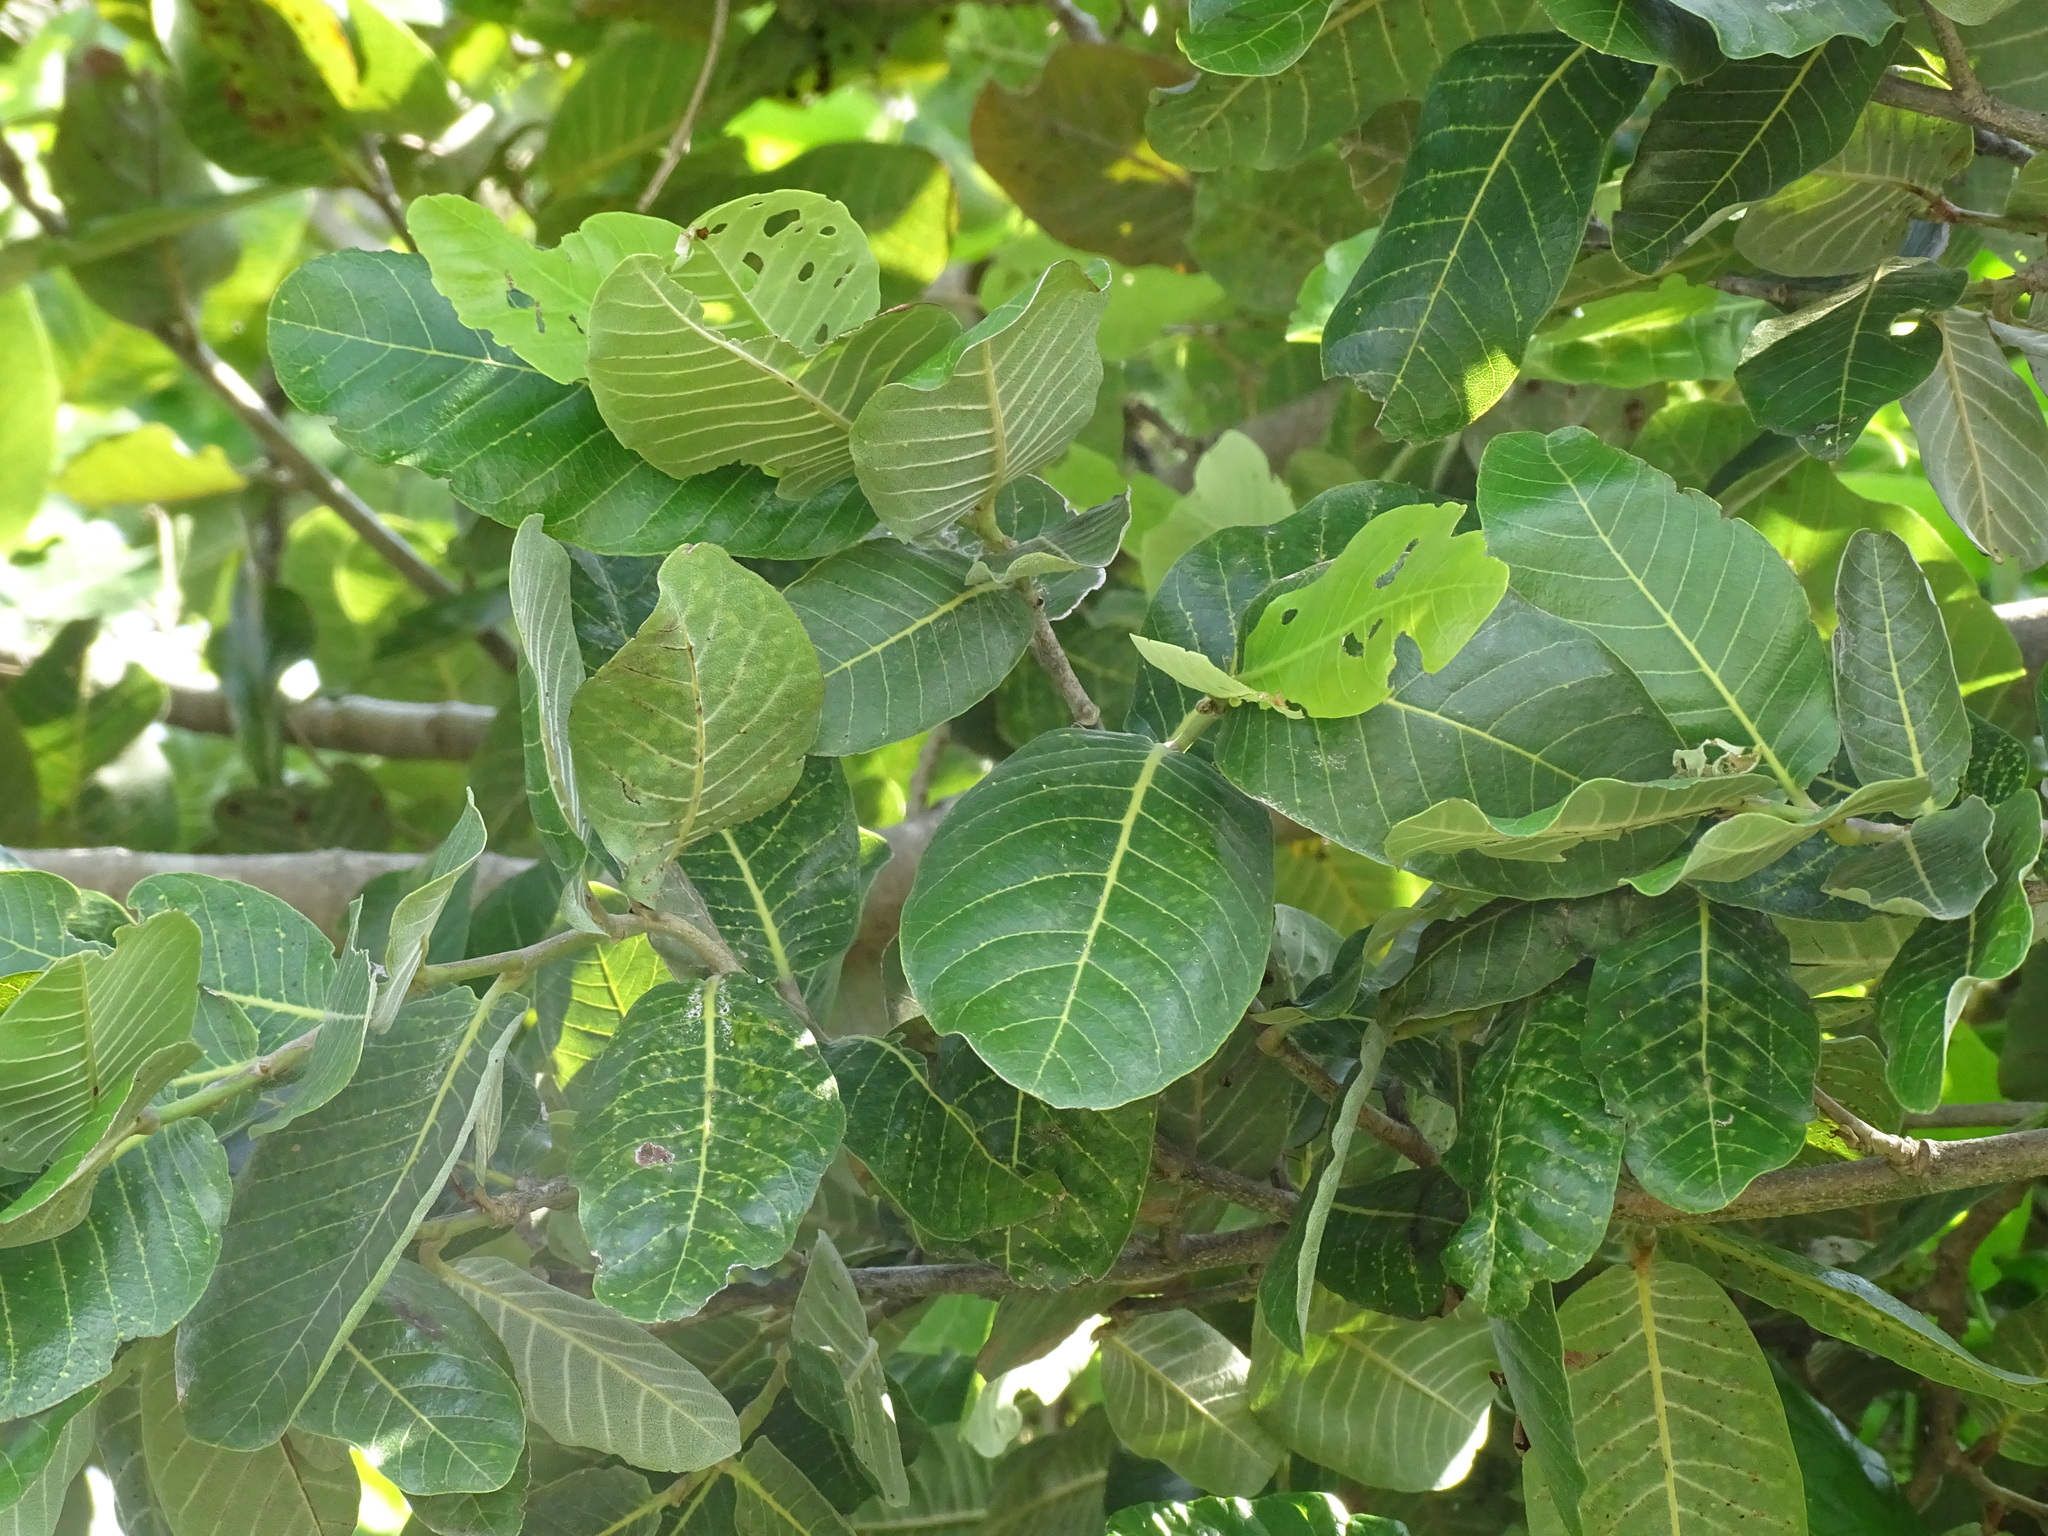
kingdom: Plantae
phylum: Tracheophyta
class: Magnoliopsida
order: Malpighiales
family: Chrysobalanaceae
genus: Microdesmia
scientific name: Microdesmia arborea
